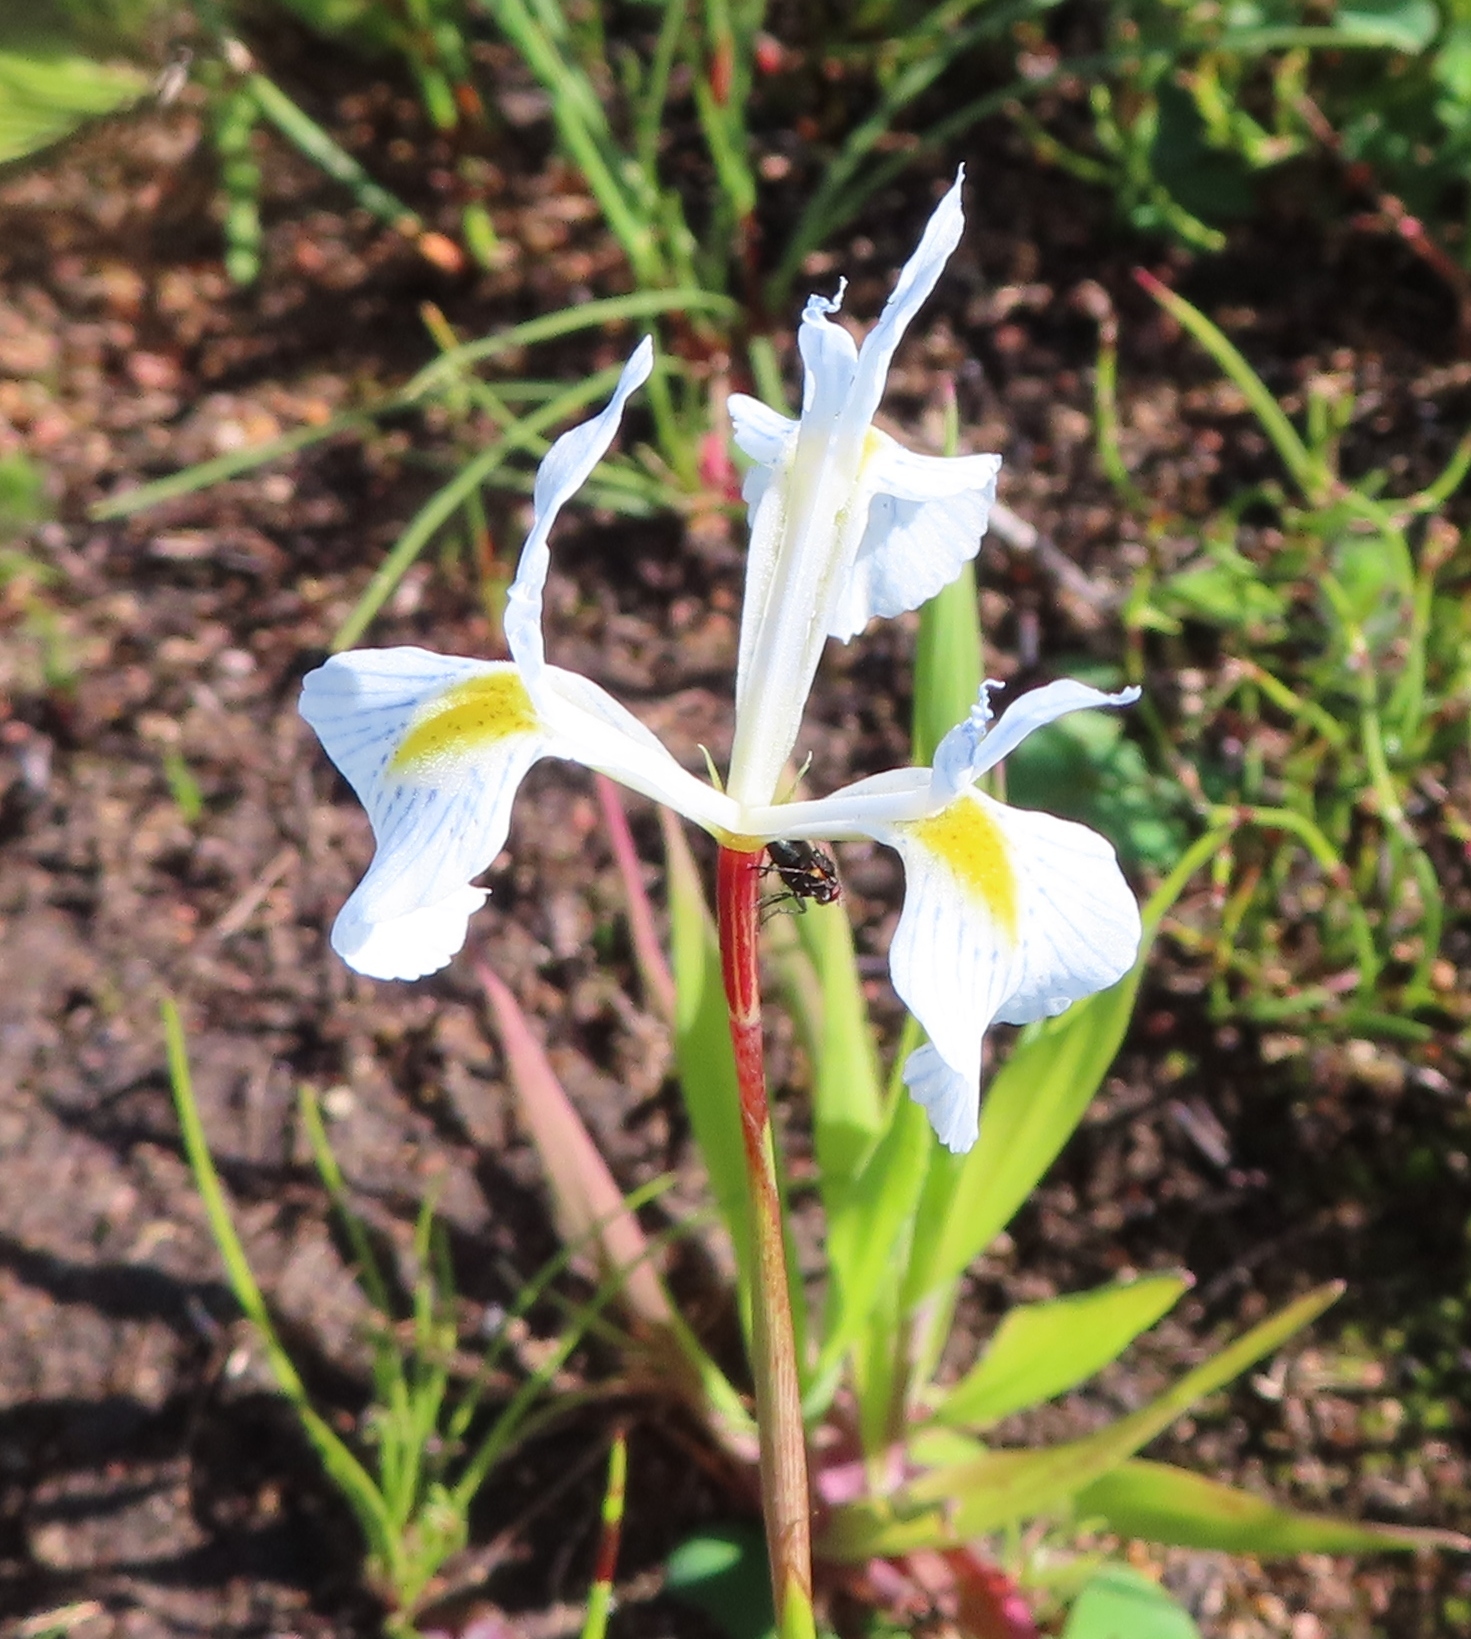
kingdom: Plantae
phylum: Tracheophyta
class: Liliopsida
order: Asparagales
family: Iridaceae
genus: Moraea
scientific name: Moraea ogamana
